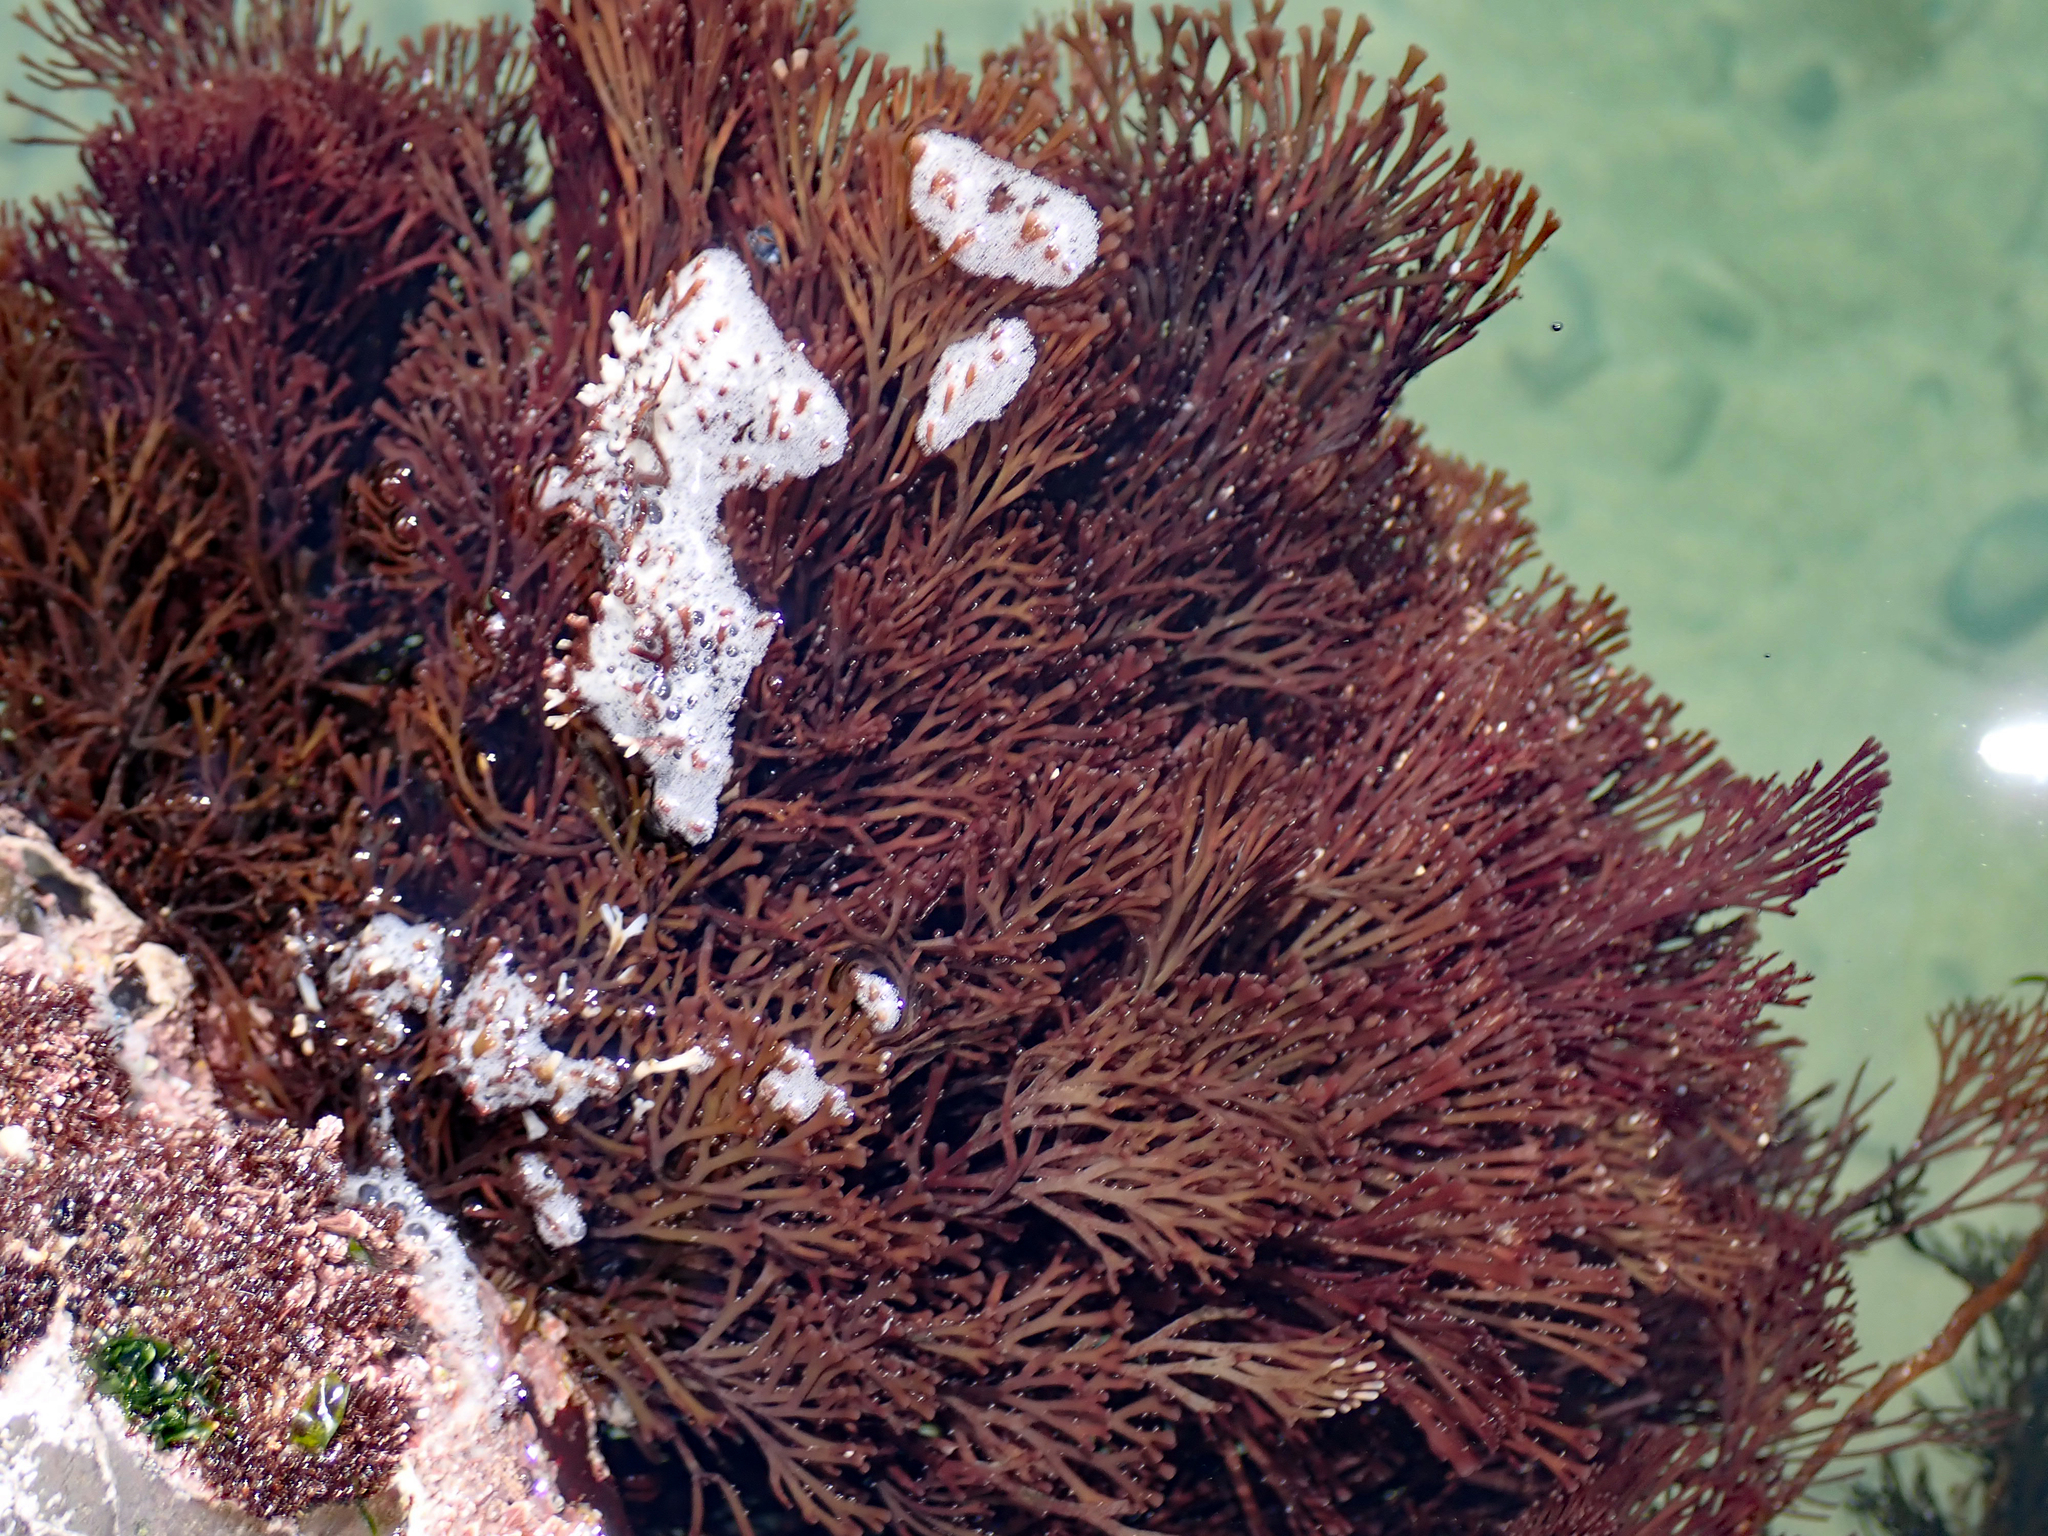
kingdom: Plantae
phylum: Rhodophyta
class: Florideophyceae
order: Gracilariales
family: Gracilariaceae
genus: Melanthalia
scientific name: Melanthalia abscissa
